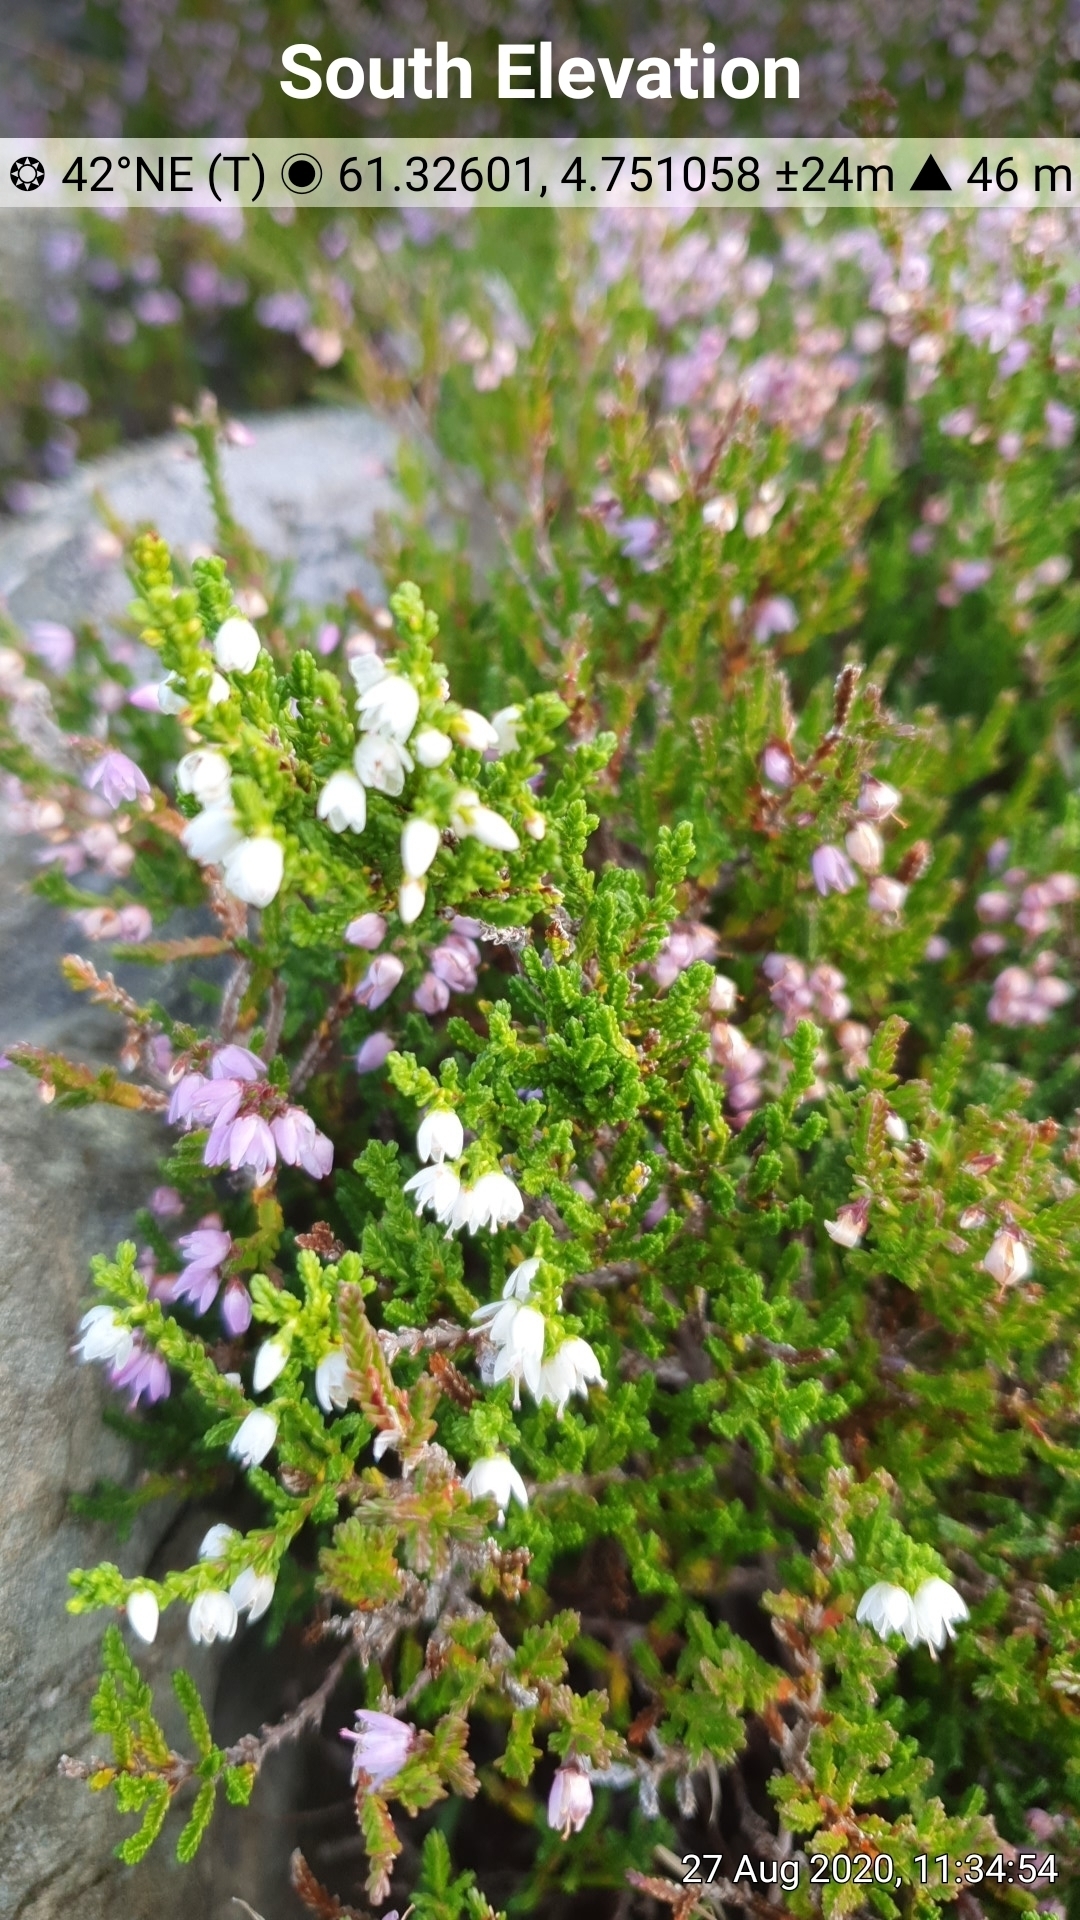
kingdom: Plantae
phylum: Tracheophyta
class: Magnoliopsida
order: Ericales
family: Ericaceae
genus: Calluna
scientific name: Calluna vulgaris
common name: Heather
